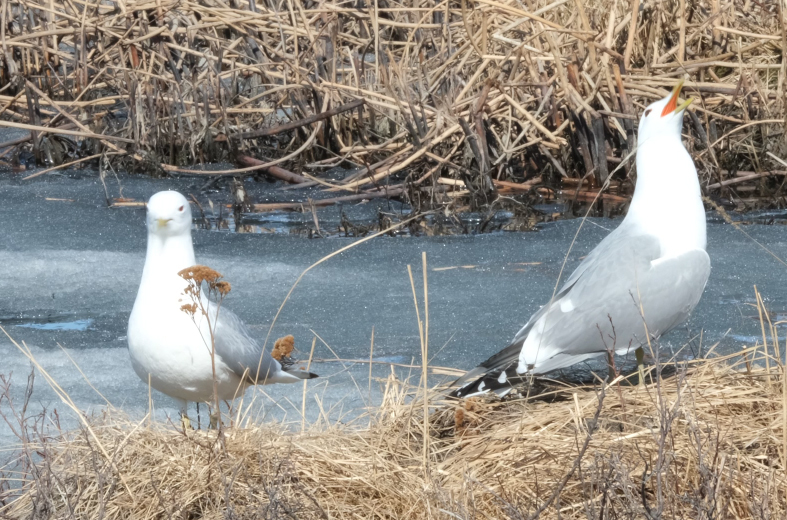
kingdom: Animalia
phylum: Chordata
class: Aves
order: Charadriiformes
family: Laridae
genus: Larus
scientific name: Larus brachyrhynchus
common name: Short-billed gull
